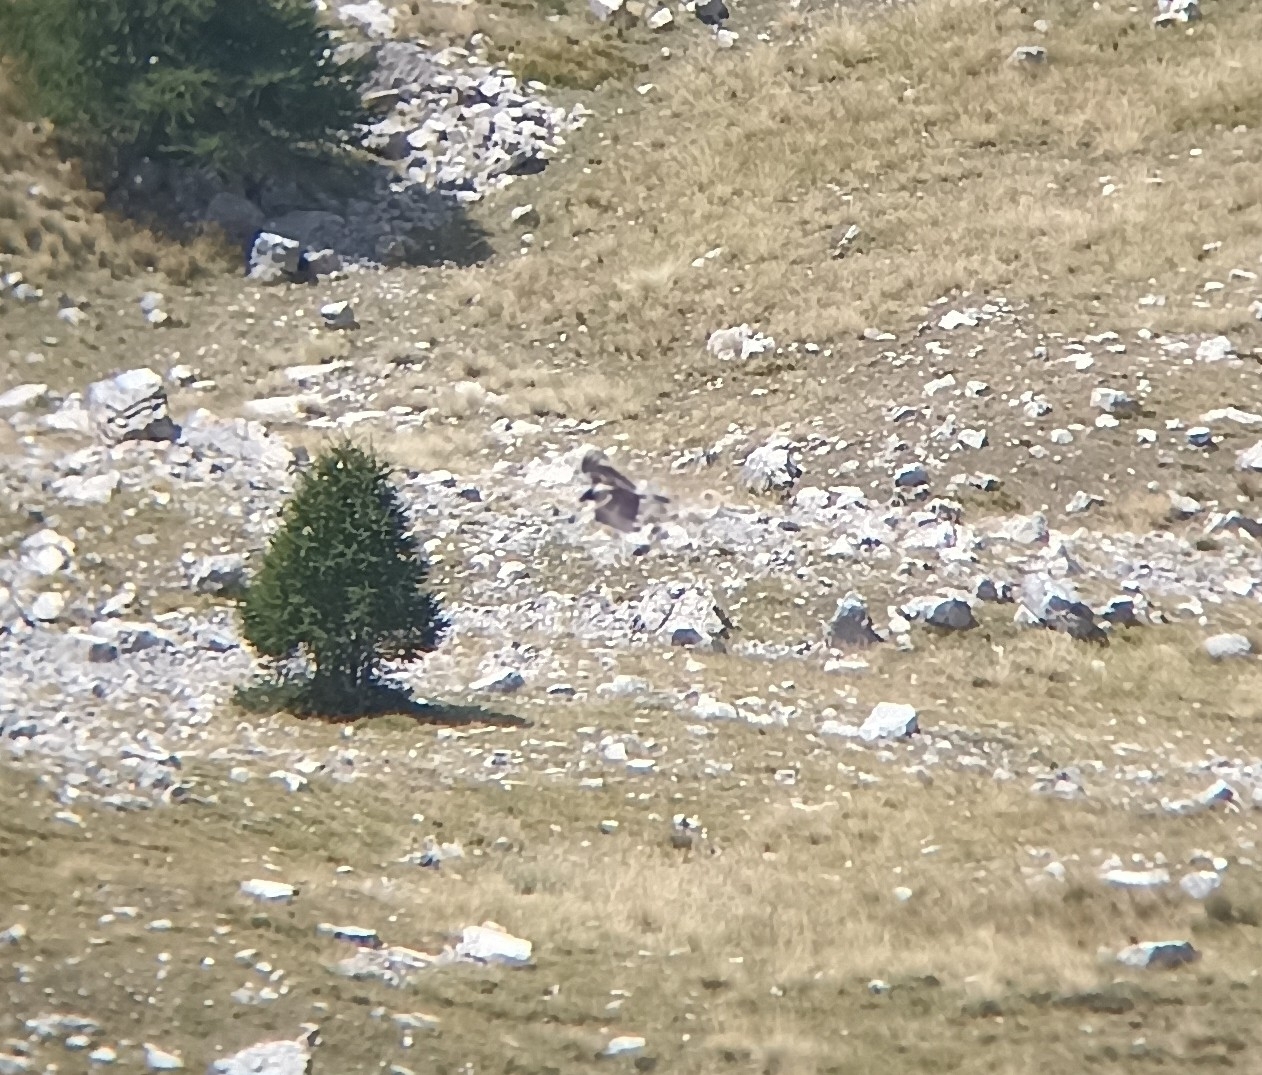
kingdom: Animalia
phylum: Chordata
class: Aves
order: Accipitriformes
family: Accipitridae
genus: Gypaetus
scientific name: Gypaetus barbatus
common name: Bearded vulture
